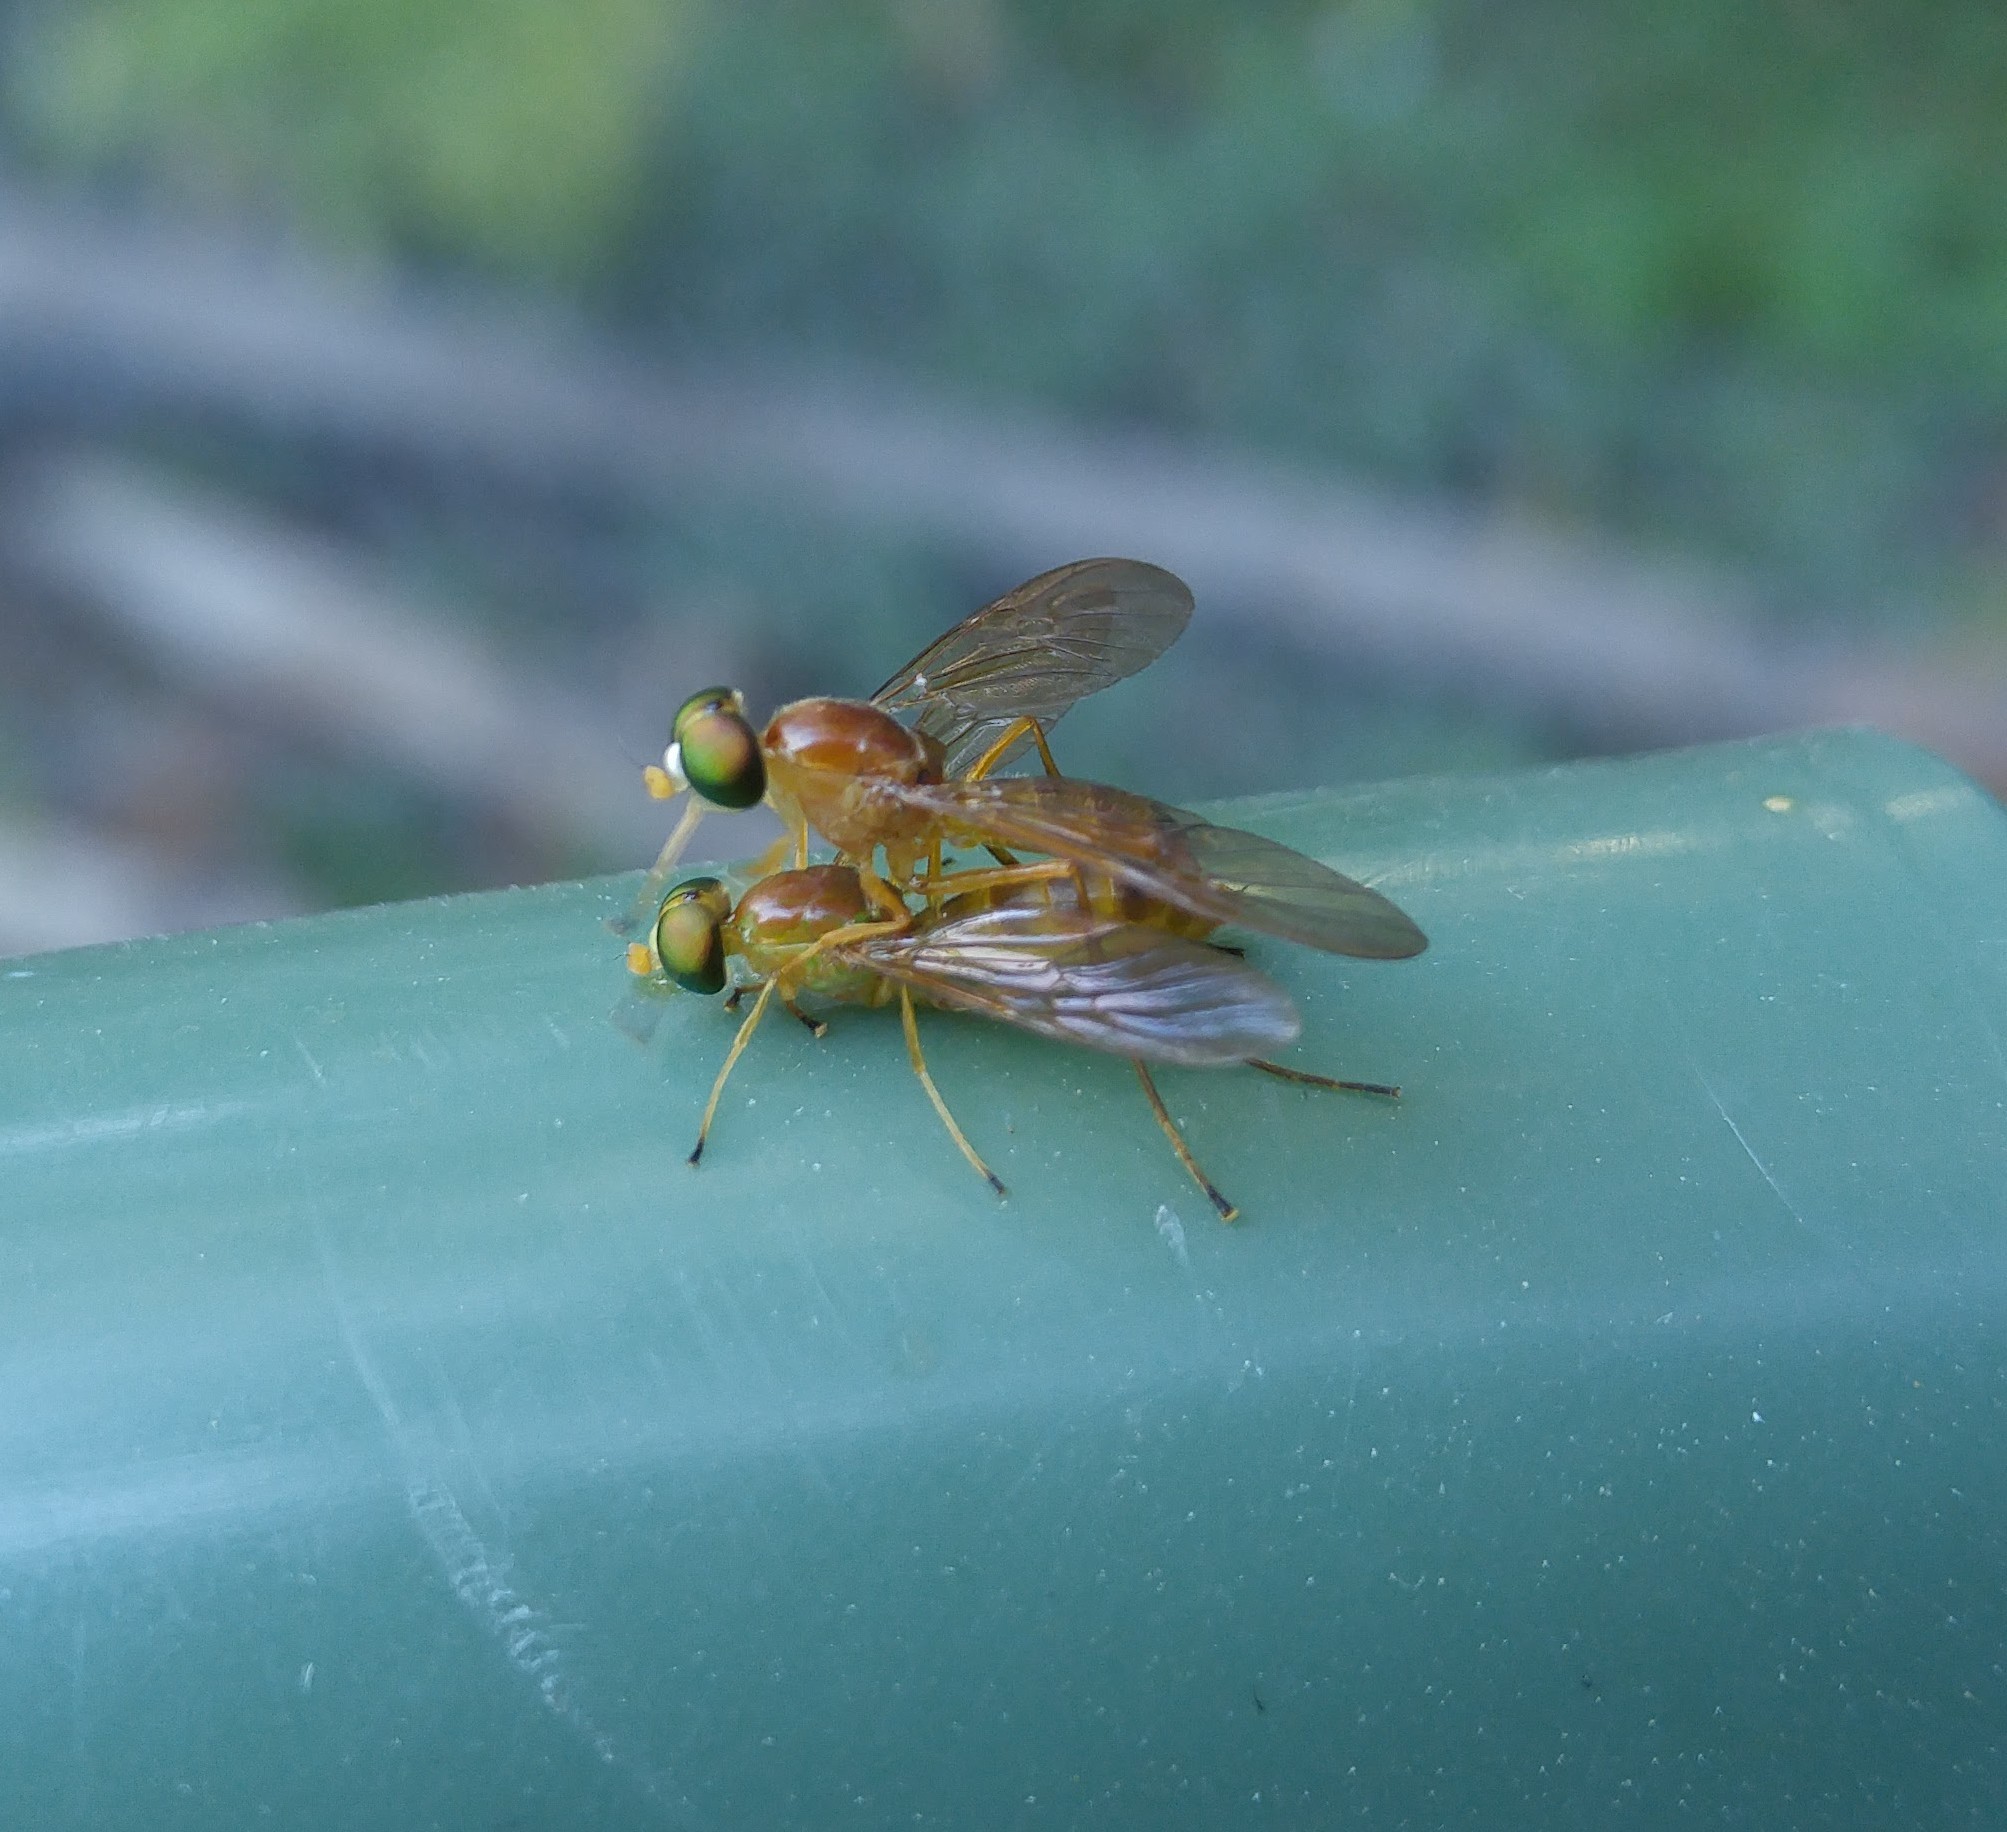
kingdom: Animalia
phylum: Arthropoda
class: Insecta
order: Diptera
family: Stratiomyidae
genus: Ptecticus
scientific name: Ptecticus trivittatus
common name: Compost fly
